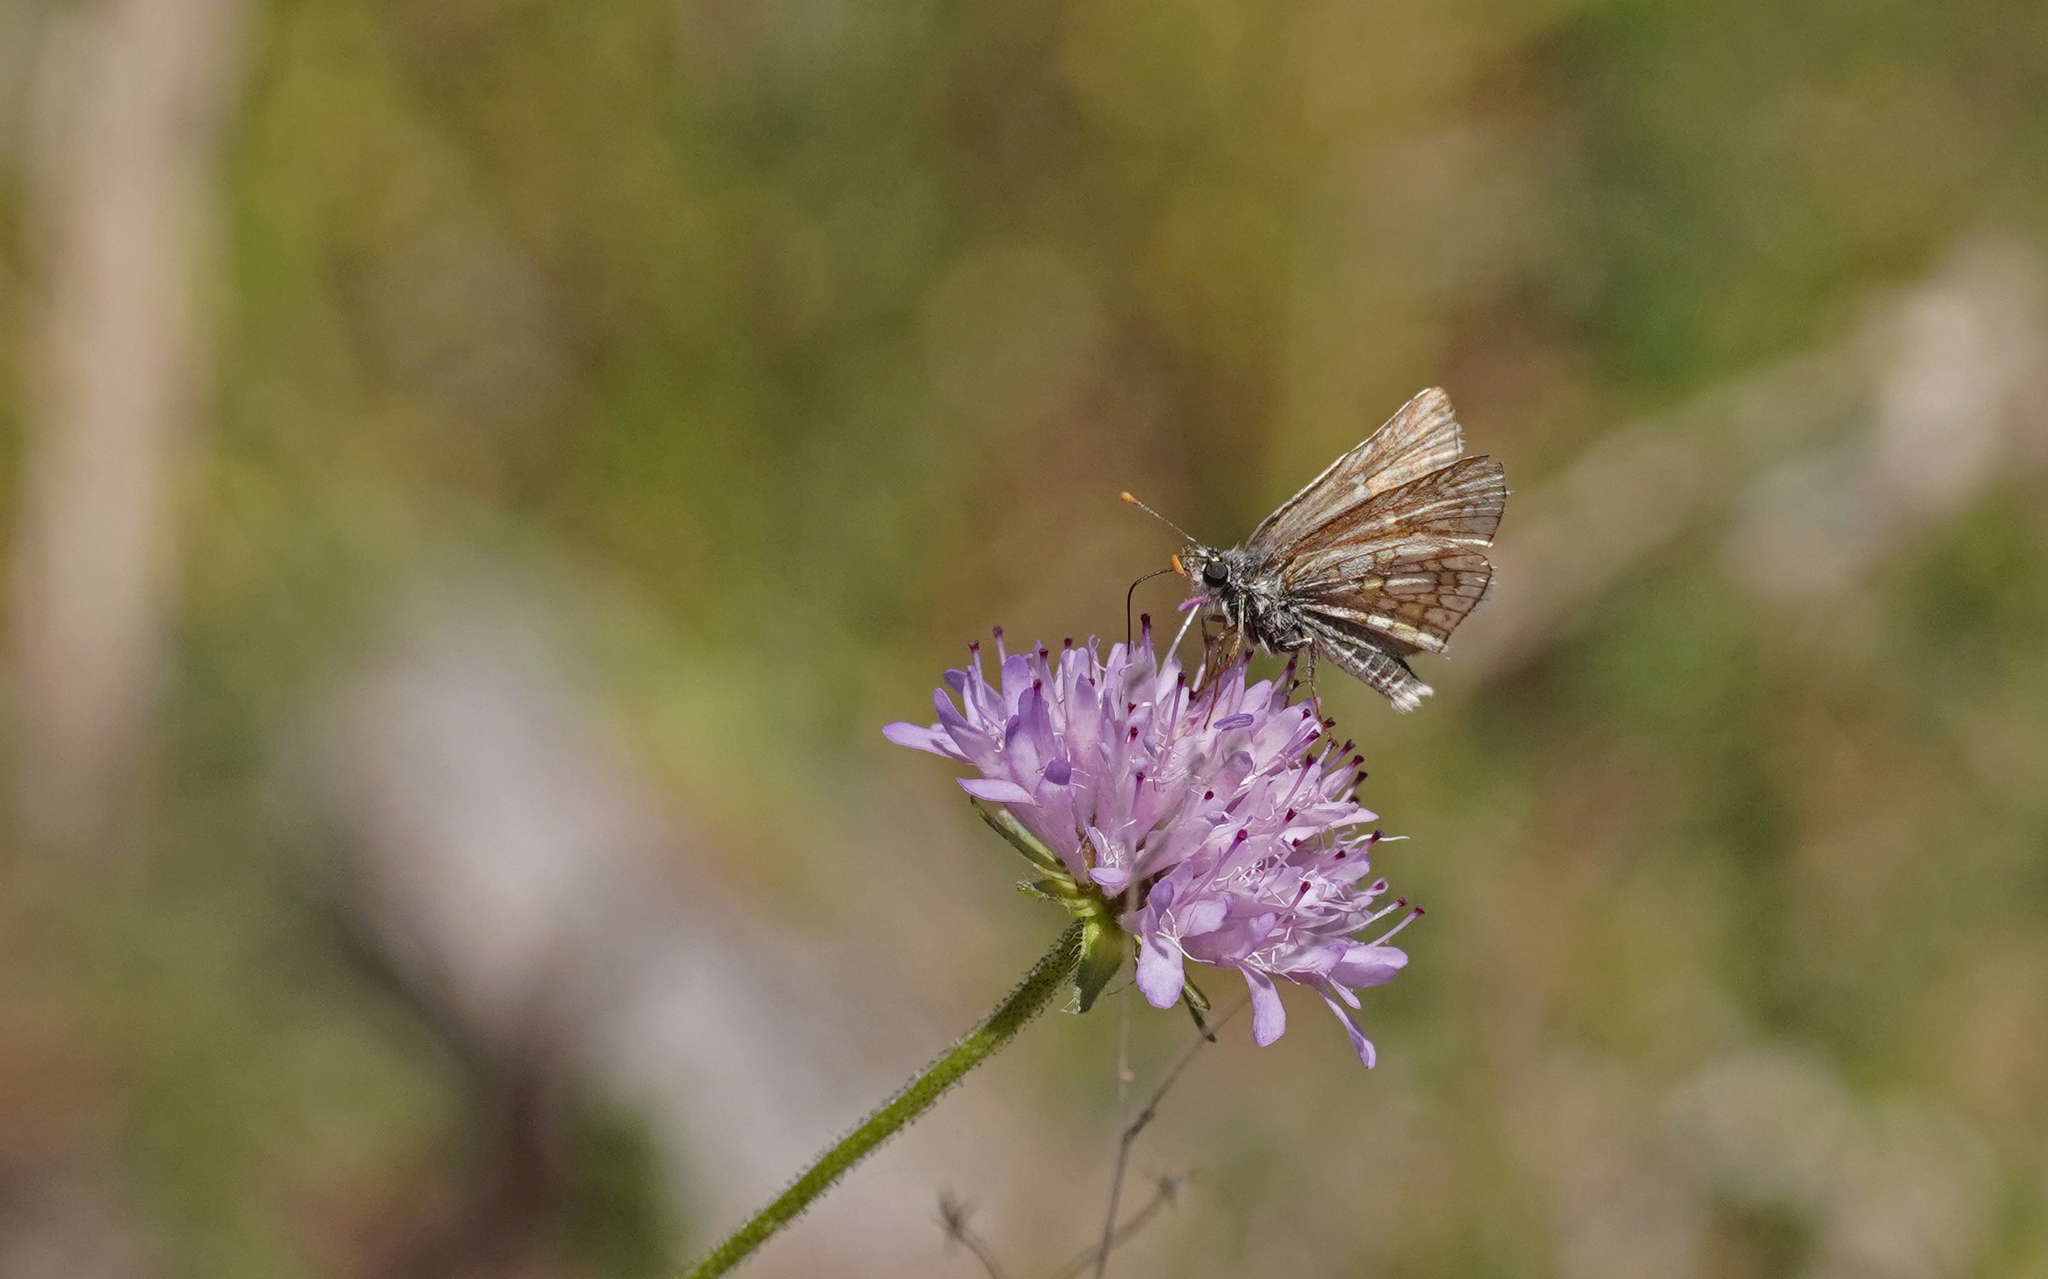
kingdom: Animalia
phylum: Arthropoda
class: Insecta
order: Lepidoptera
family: Hesperiidae
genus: Pyrgus
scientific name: Pyrgus sidae
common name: Yellow-banded skipper
